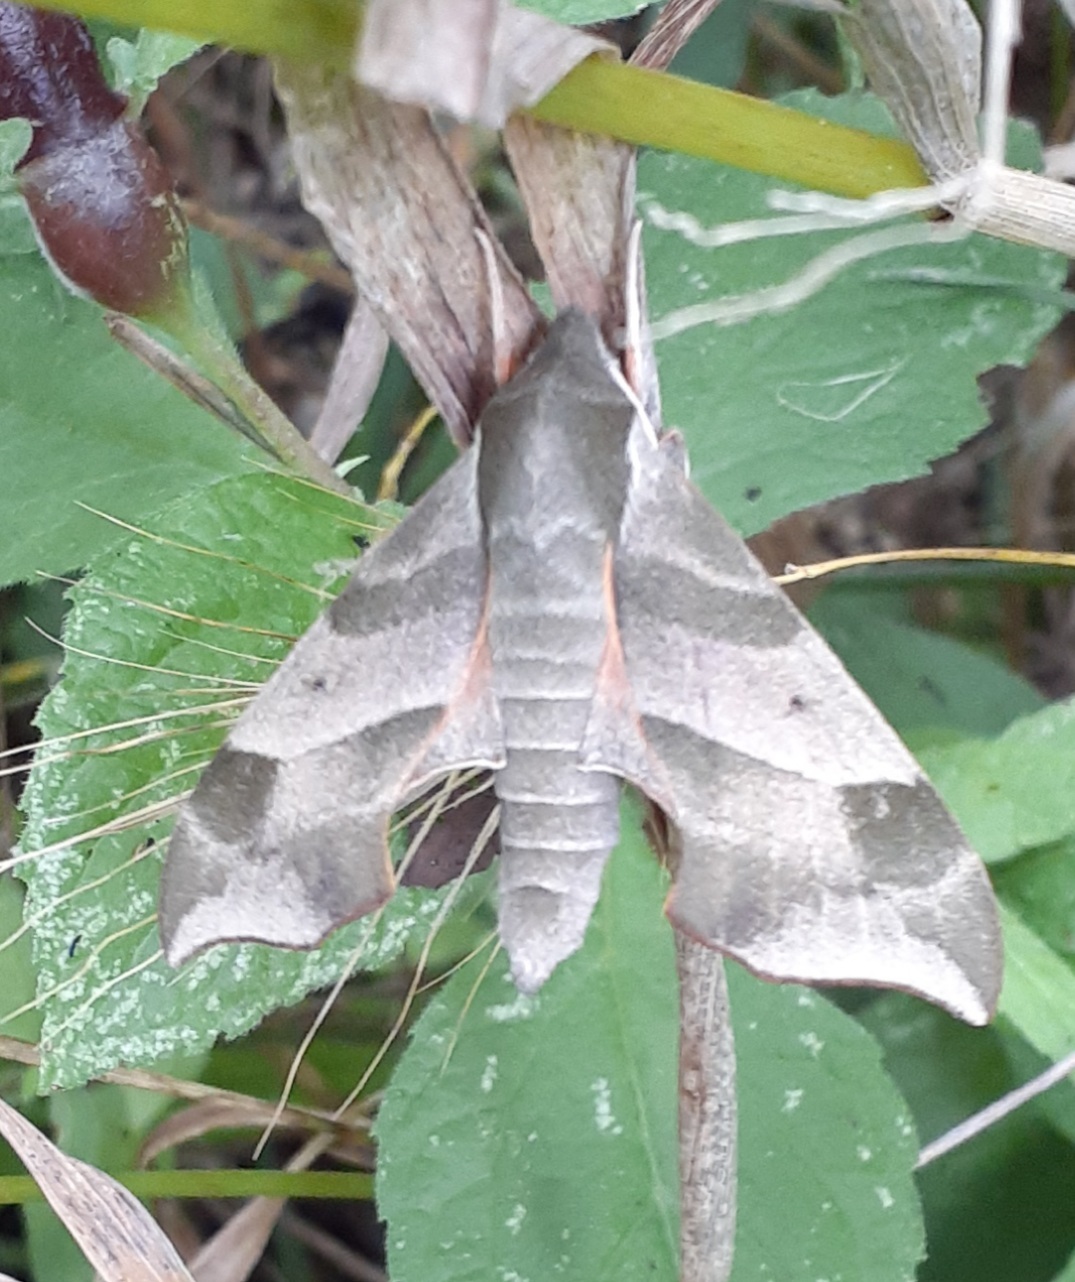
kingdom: Animalia
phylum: Arthropoda
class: Insecta
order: Lepidoptera
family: Sphingidae
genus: Darapsa
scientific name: Darapsa myron
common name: Hog sphinx
